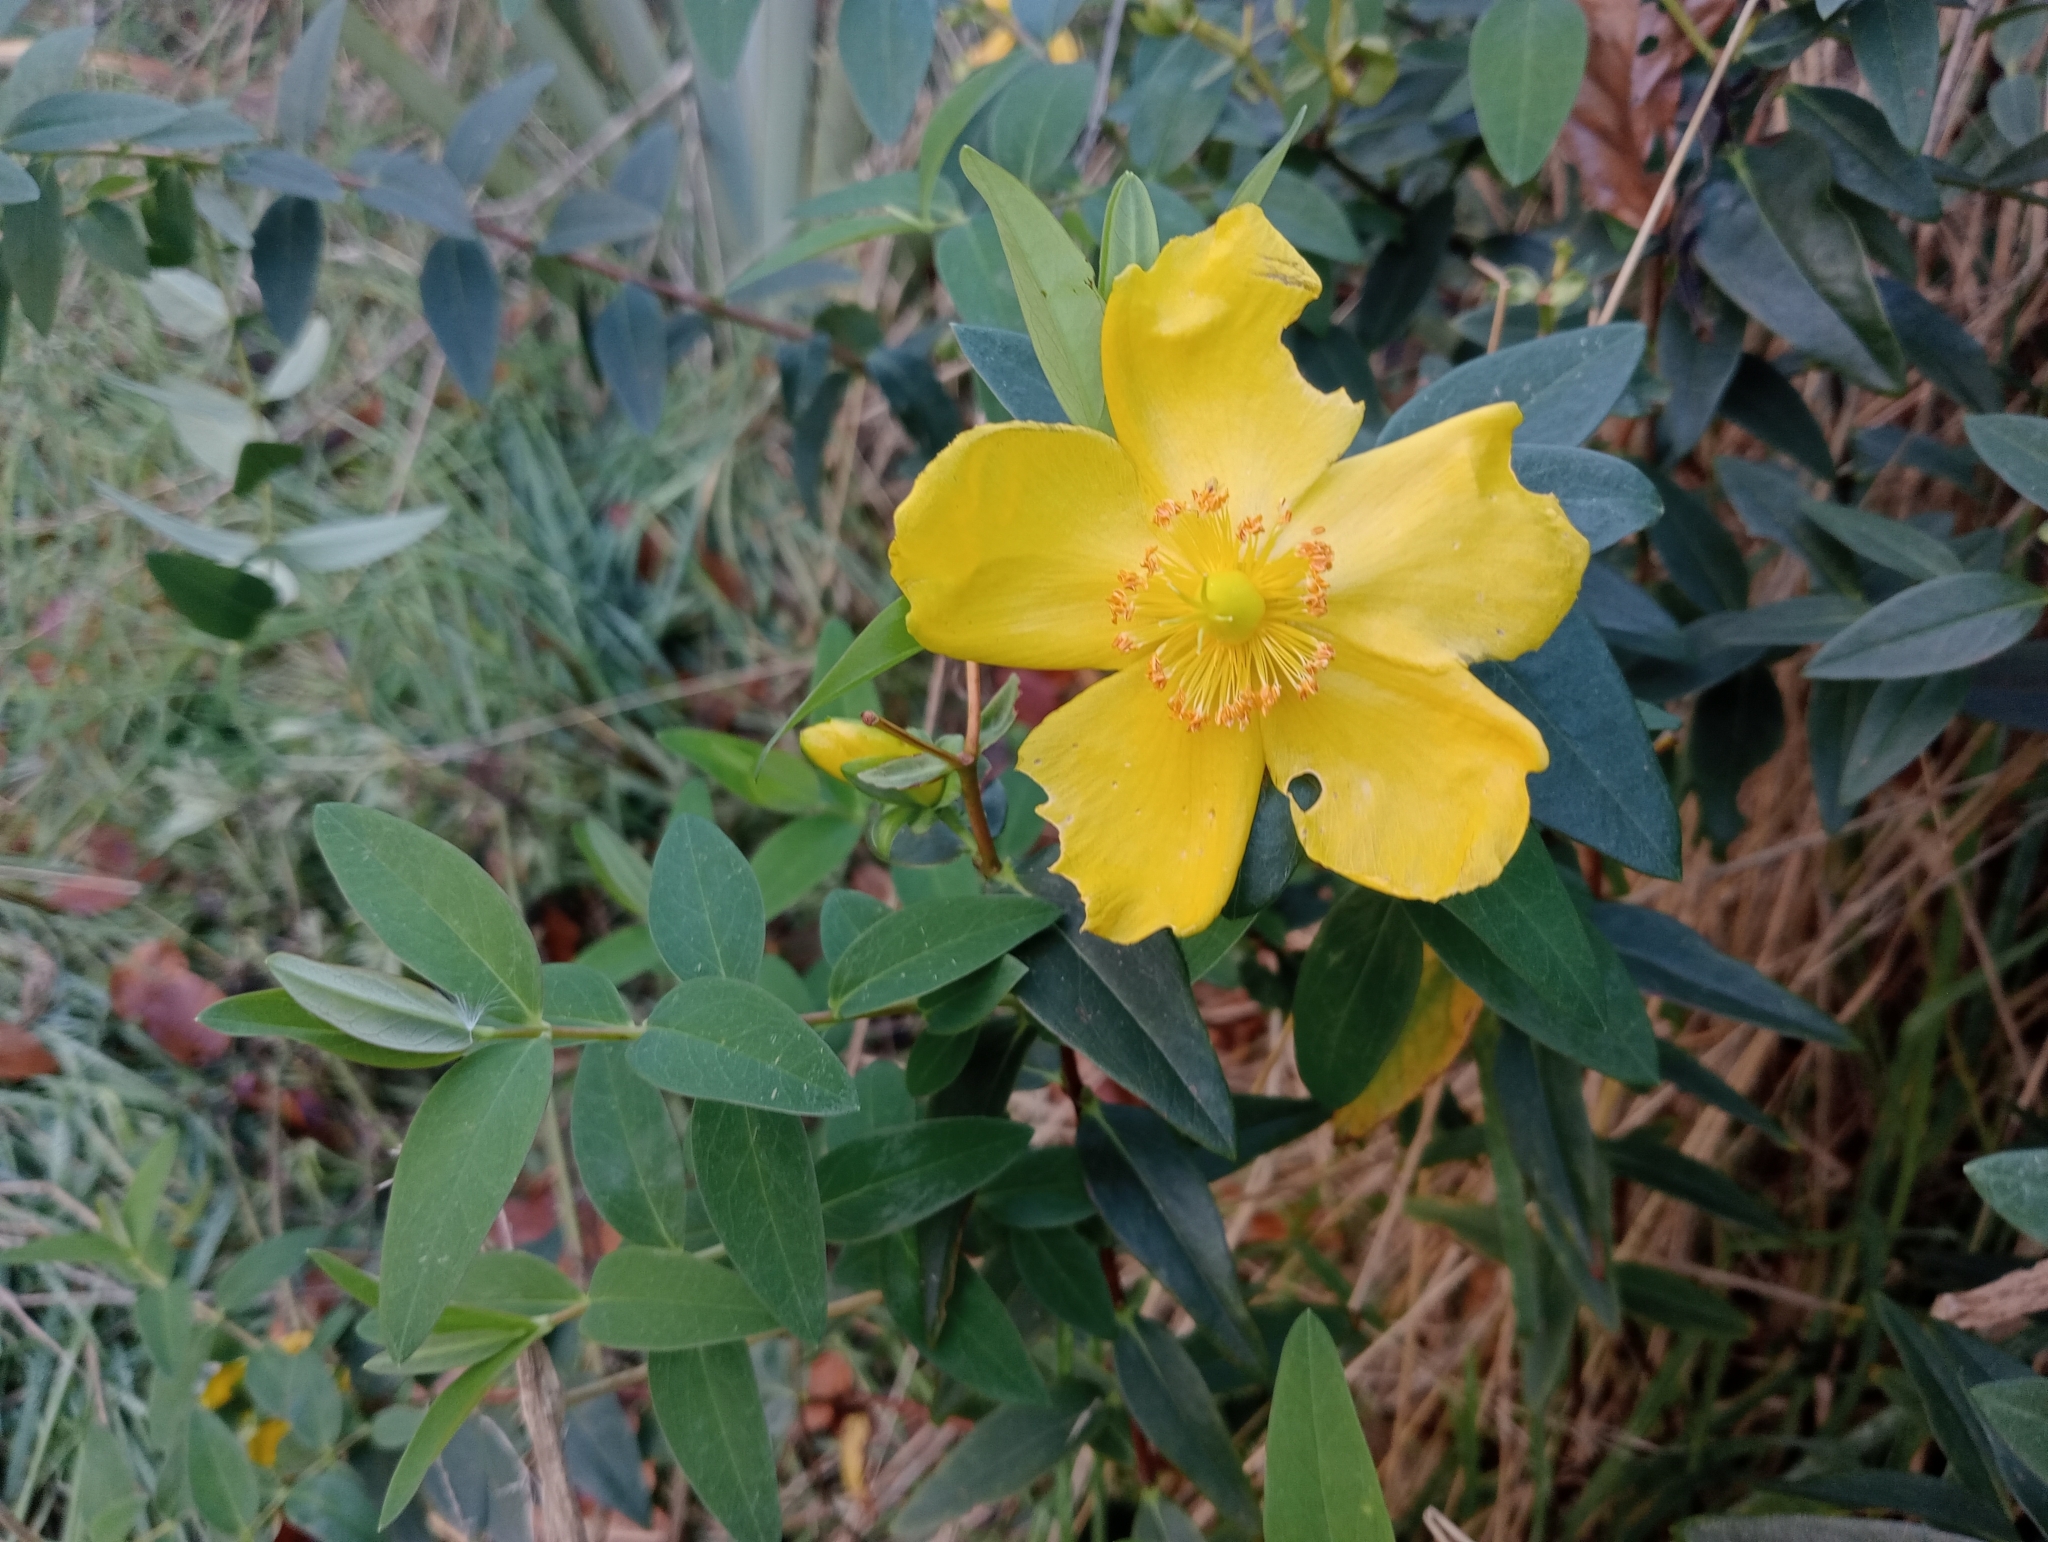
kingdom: Plantae
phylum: Tracheophyta
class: Magnoliopsida
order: Malpighiales
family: Hypericaceae
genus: Hypericum
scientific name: Hypericum calycinum
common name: Rose-of-sharon
